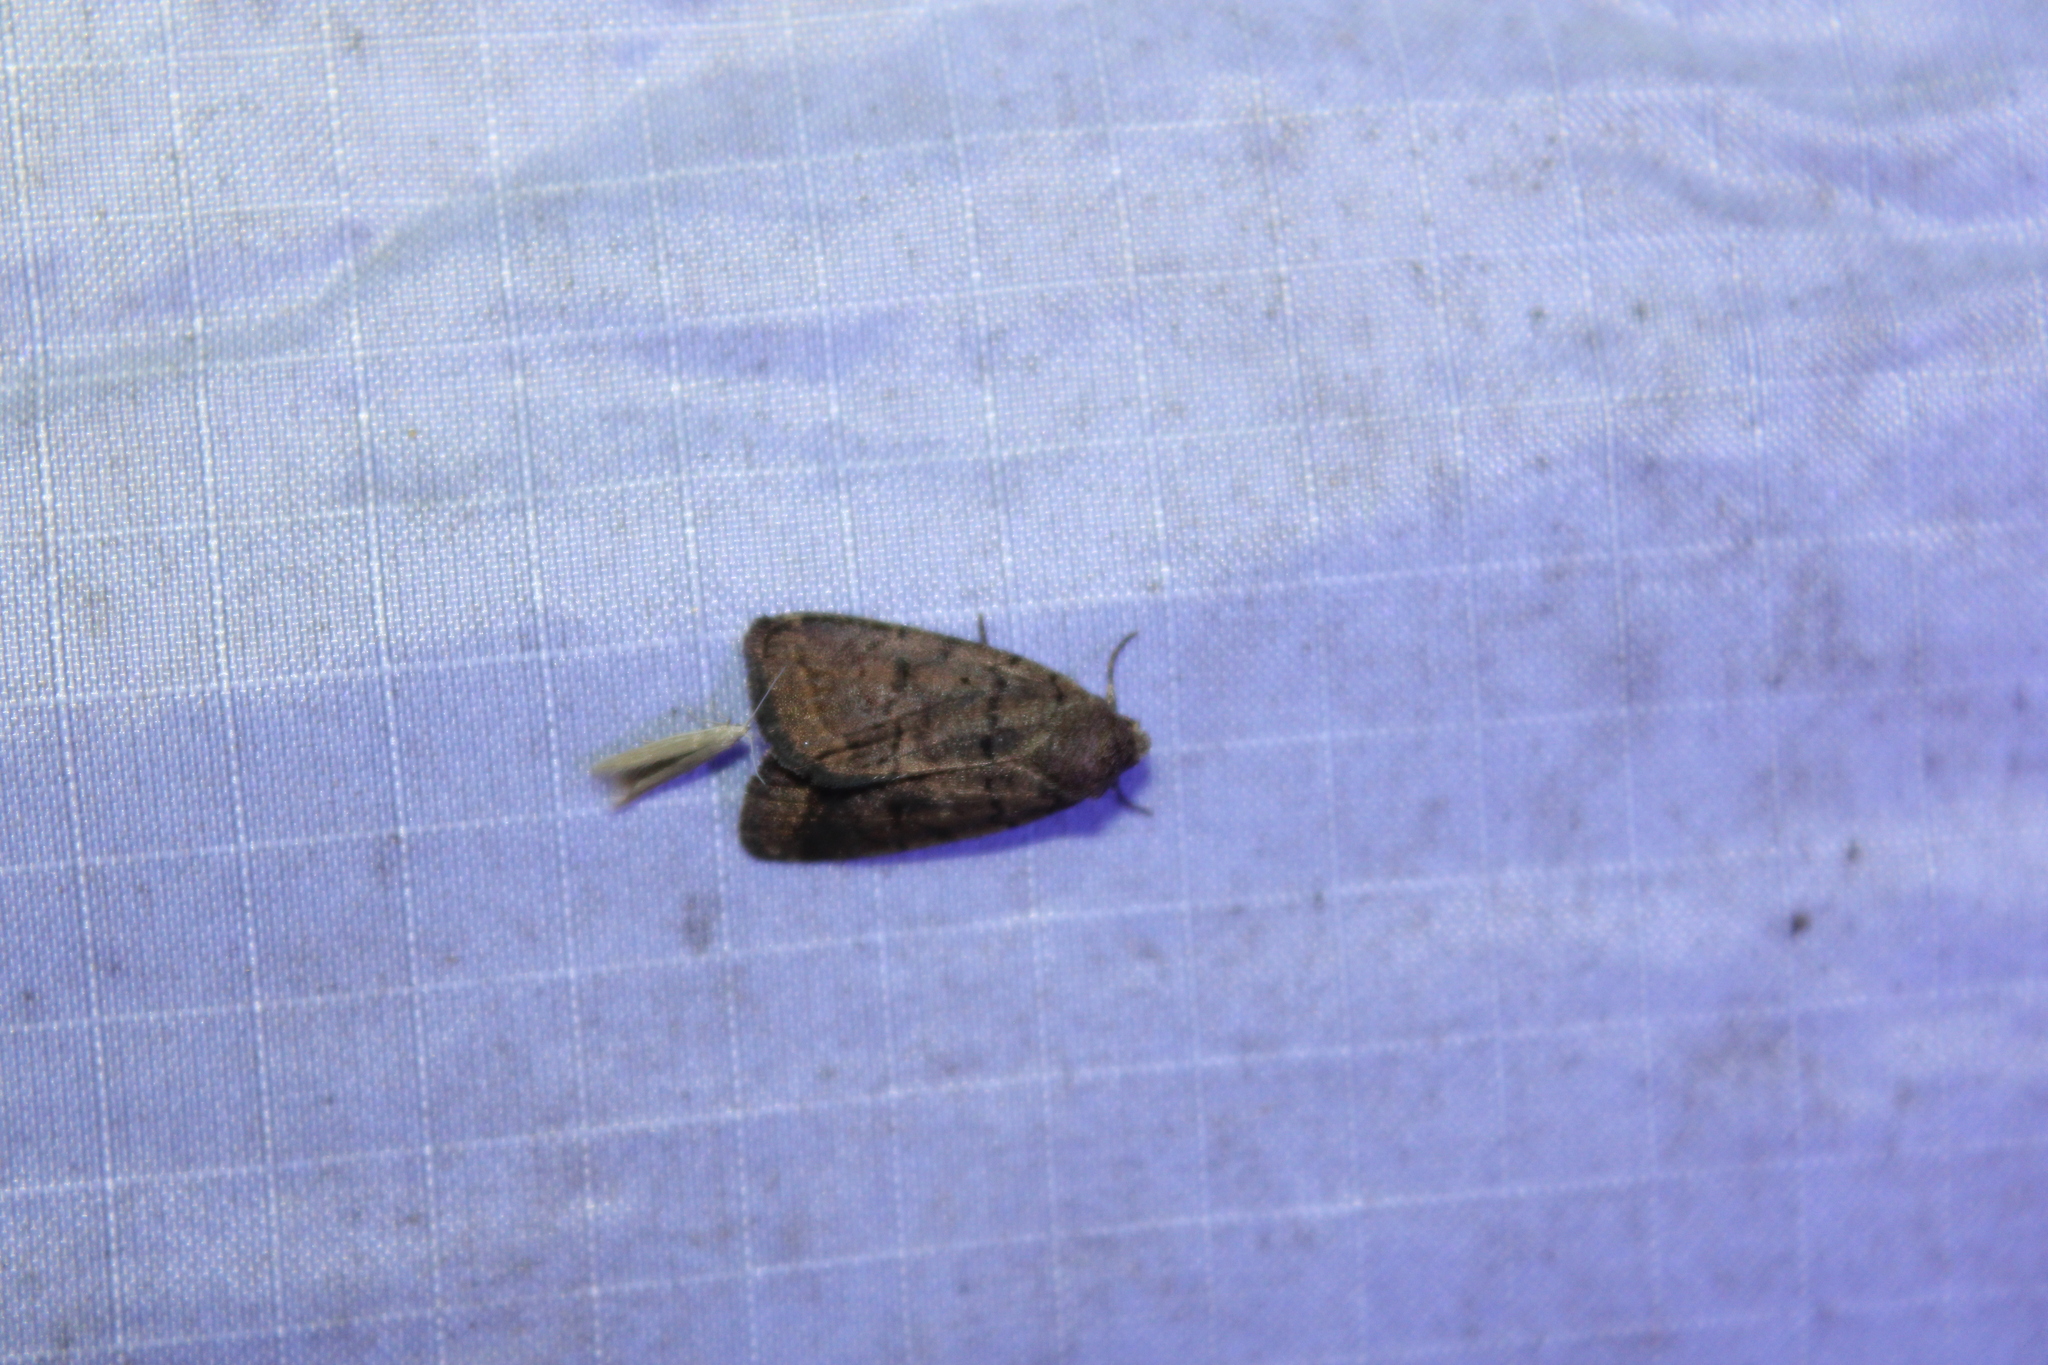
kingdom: Animalia
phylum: Arthropoda
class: Insecta
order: Lepidoptera
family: Noctuidae
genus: Athetis
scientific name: Athetis tarda
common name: Slowpoke moth
